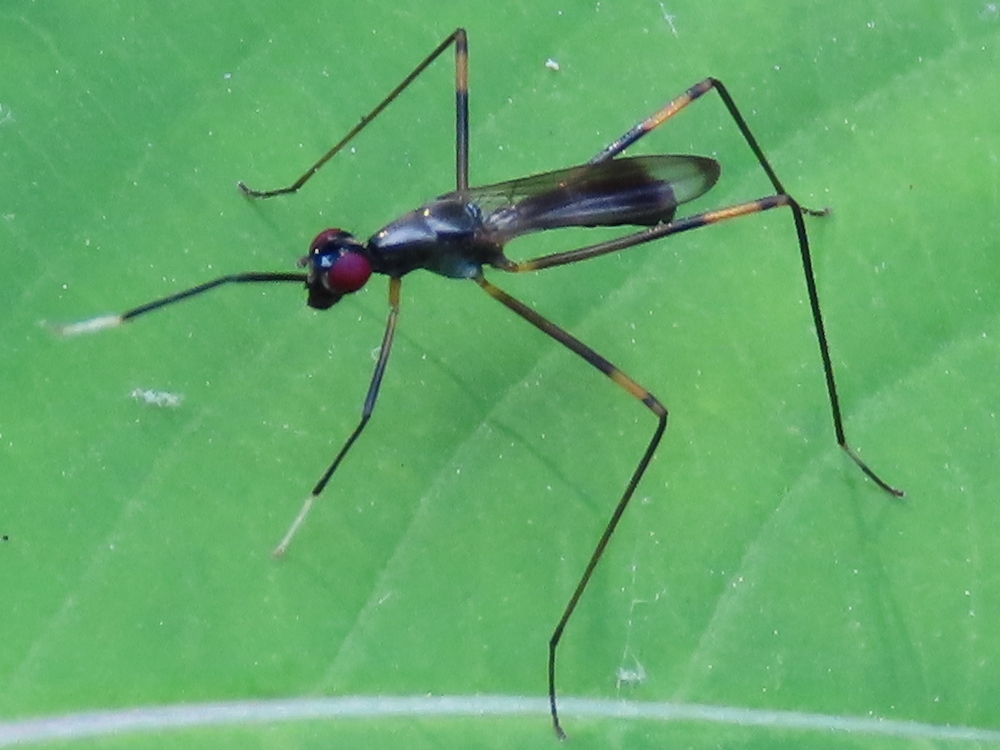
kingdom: Animalia
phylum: Arthropoda
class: Insecta
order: Diptera
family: Micropezidae
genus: Rainieria
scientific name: Rainieria antennaepes
